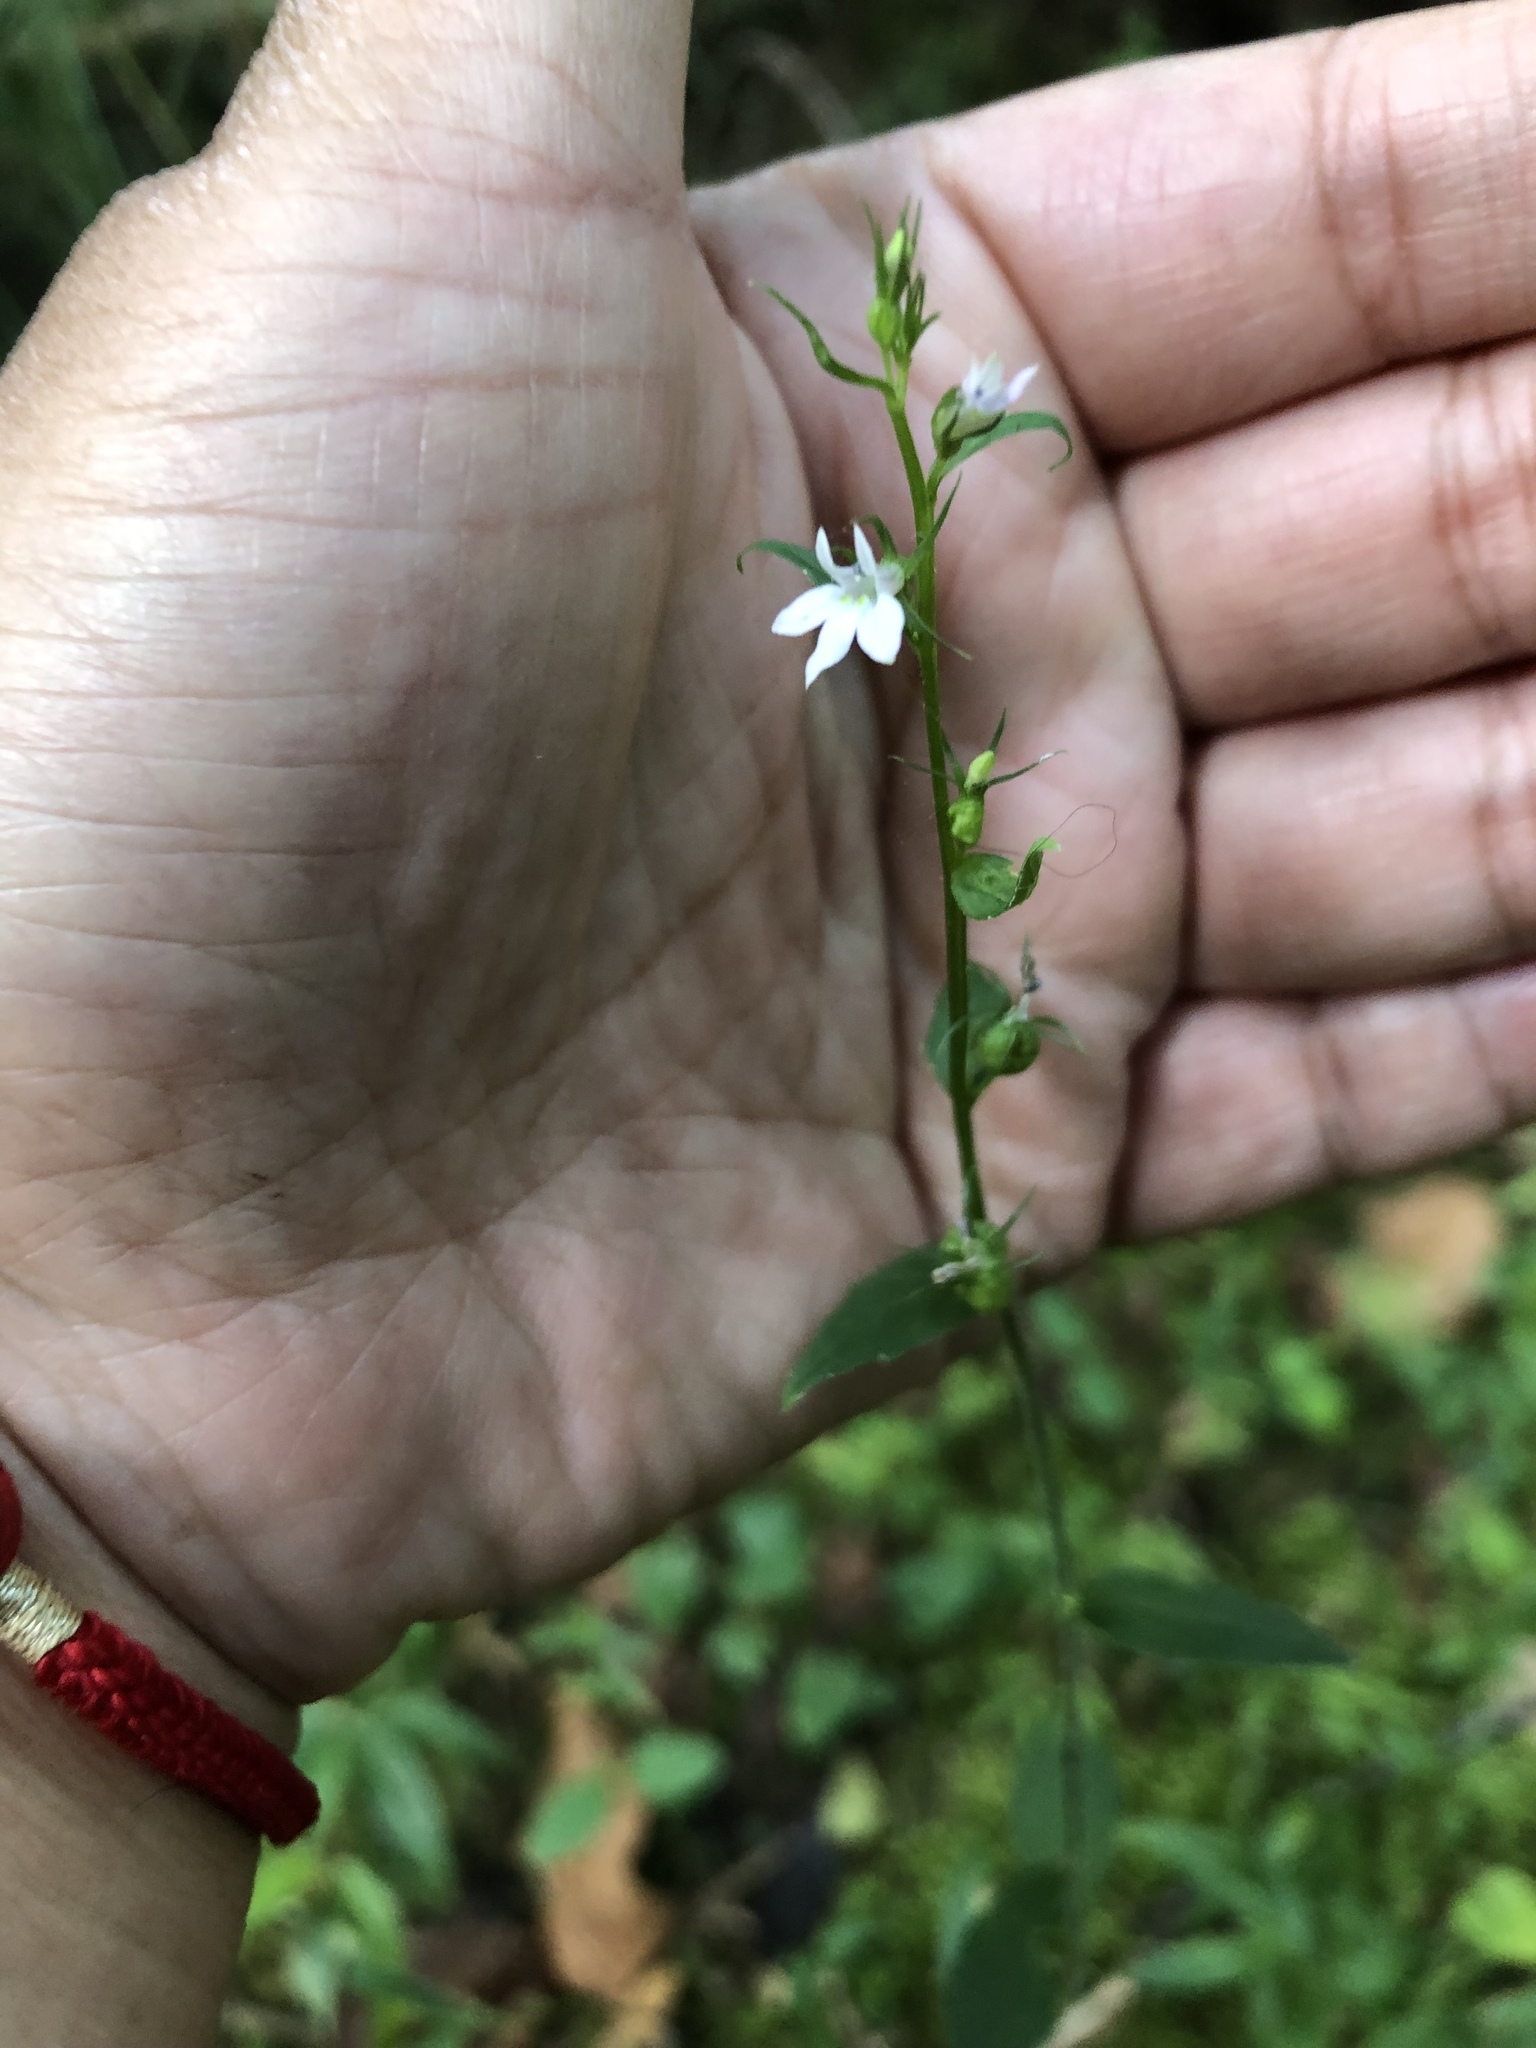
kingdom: Plantae
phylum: Tracheophyta
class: Magnoliopsida
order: Asterales
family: Campanulaceae
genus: Lobelia
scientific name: Lobelia inflata
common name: Indian tobacco
